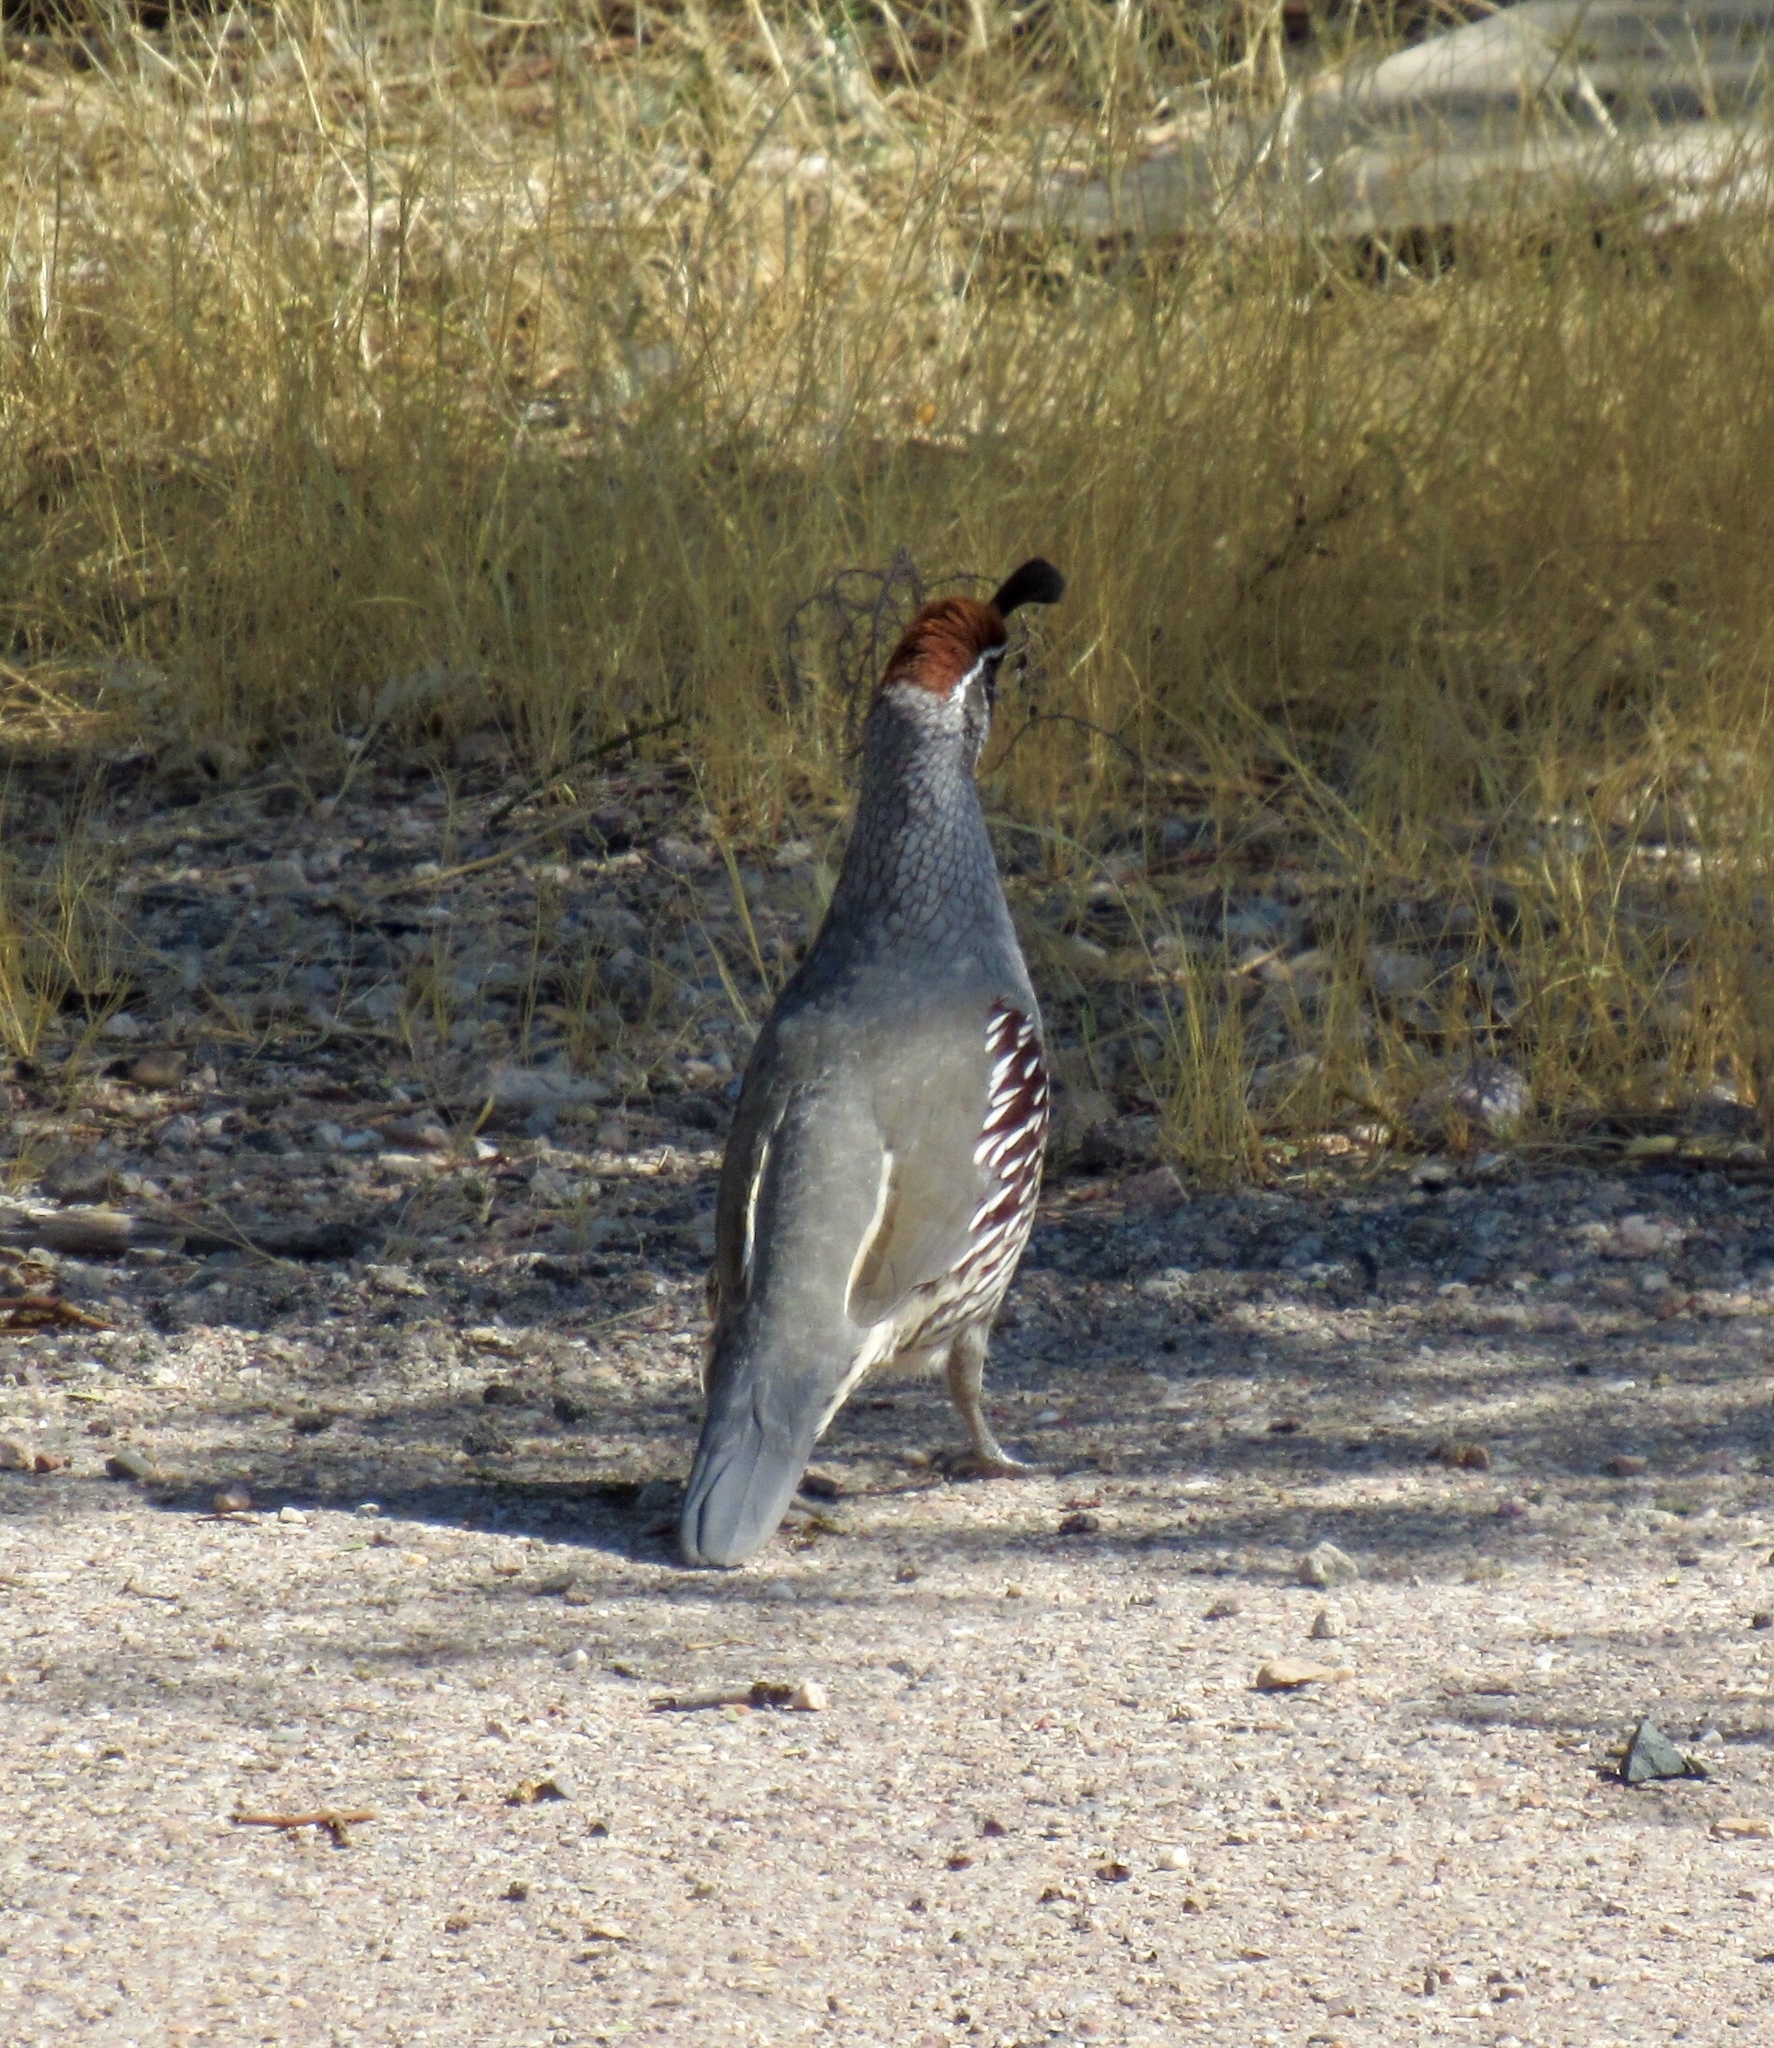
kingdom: Animalia
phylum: Chordata
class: Aves
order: Galliformes
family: Odontophoridae
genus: Callipepla
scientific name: Callipepla gambelii
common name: Gambel's quail
